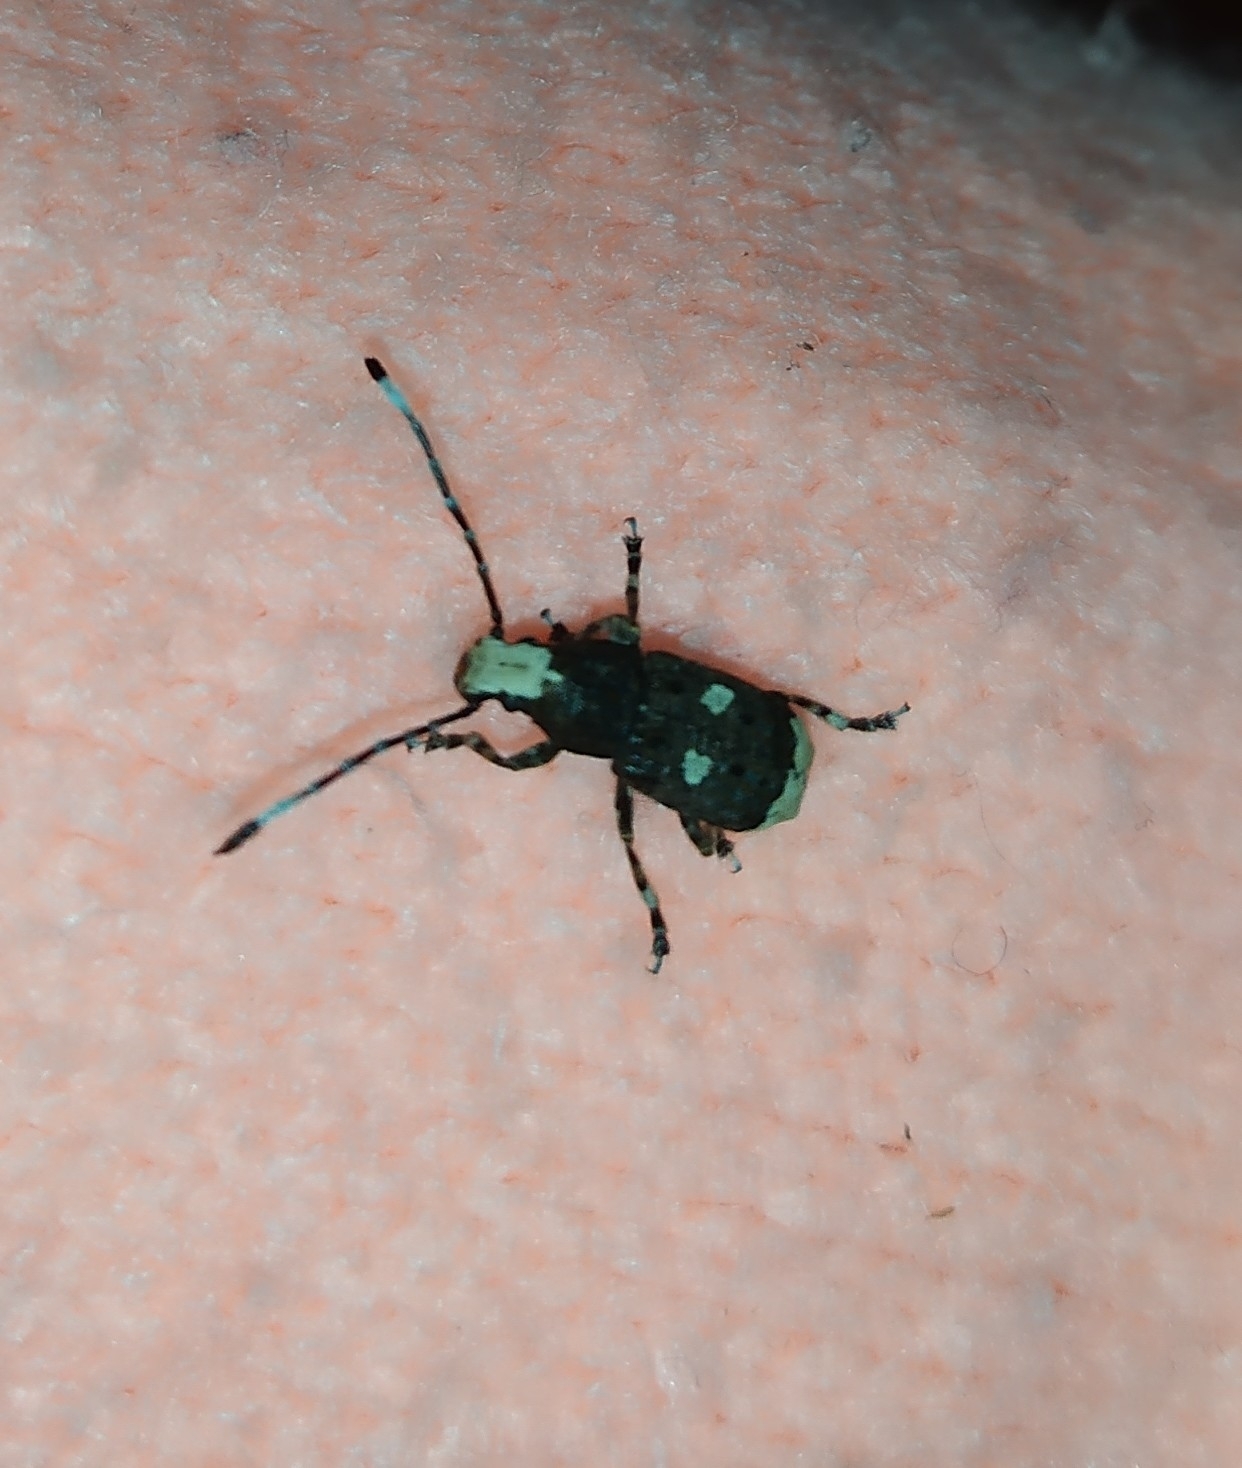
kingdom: Animalia
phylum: Arthropoda
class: Insecta
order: Coleoptera
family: Anthribidae
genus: Platystomos
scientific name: Platystomos albinus
